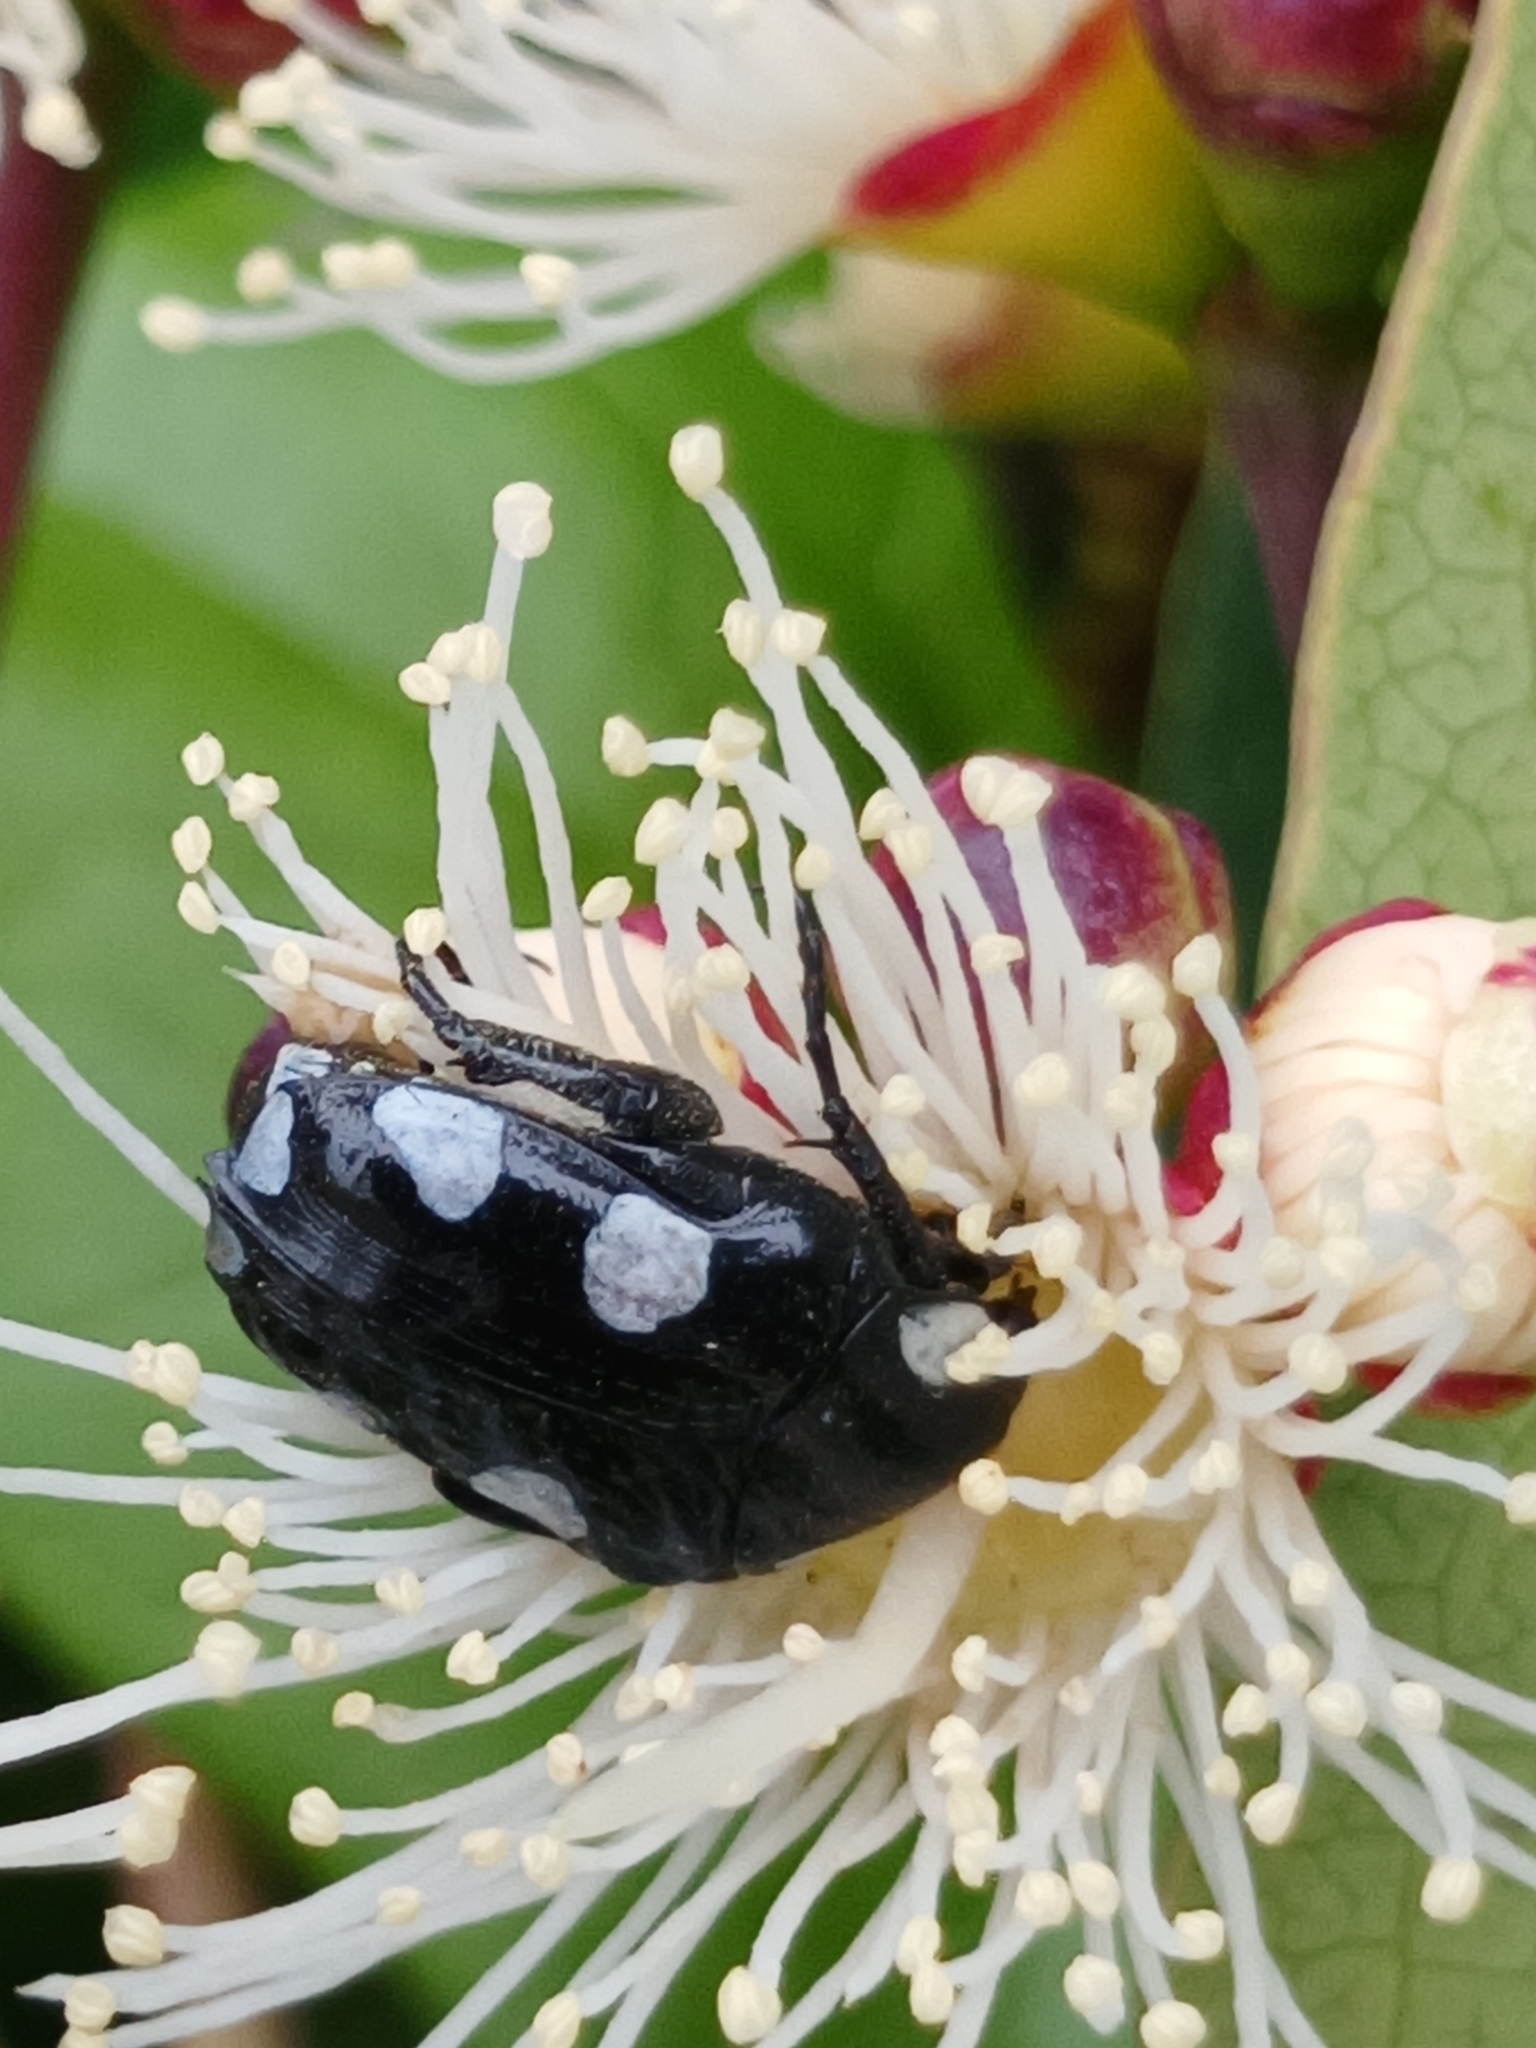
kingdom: Animalia
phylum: Arthropoda
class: Insecta
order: Coleoptera
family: Scarabaeidae
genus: Mausoleopsis
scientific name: Mausoleopsis amabilis
